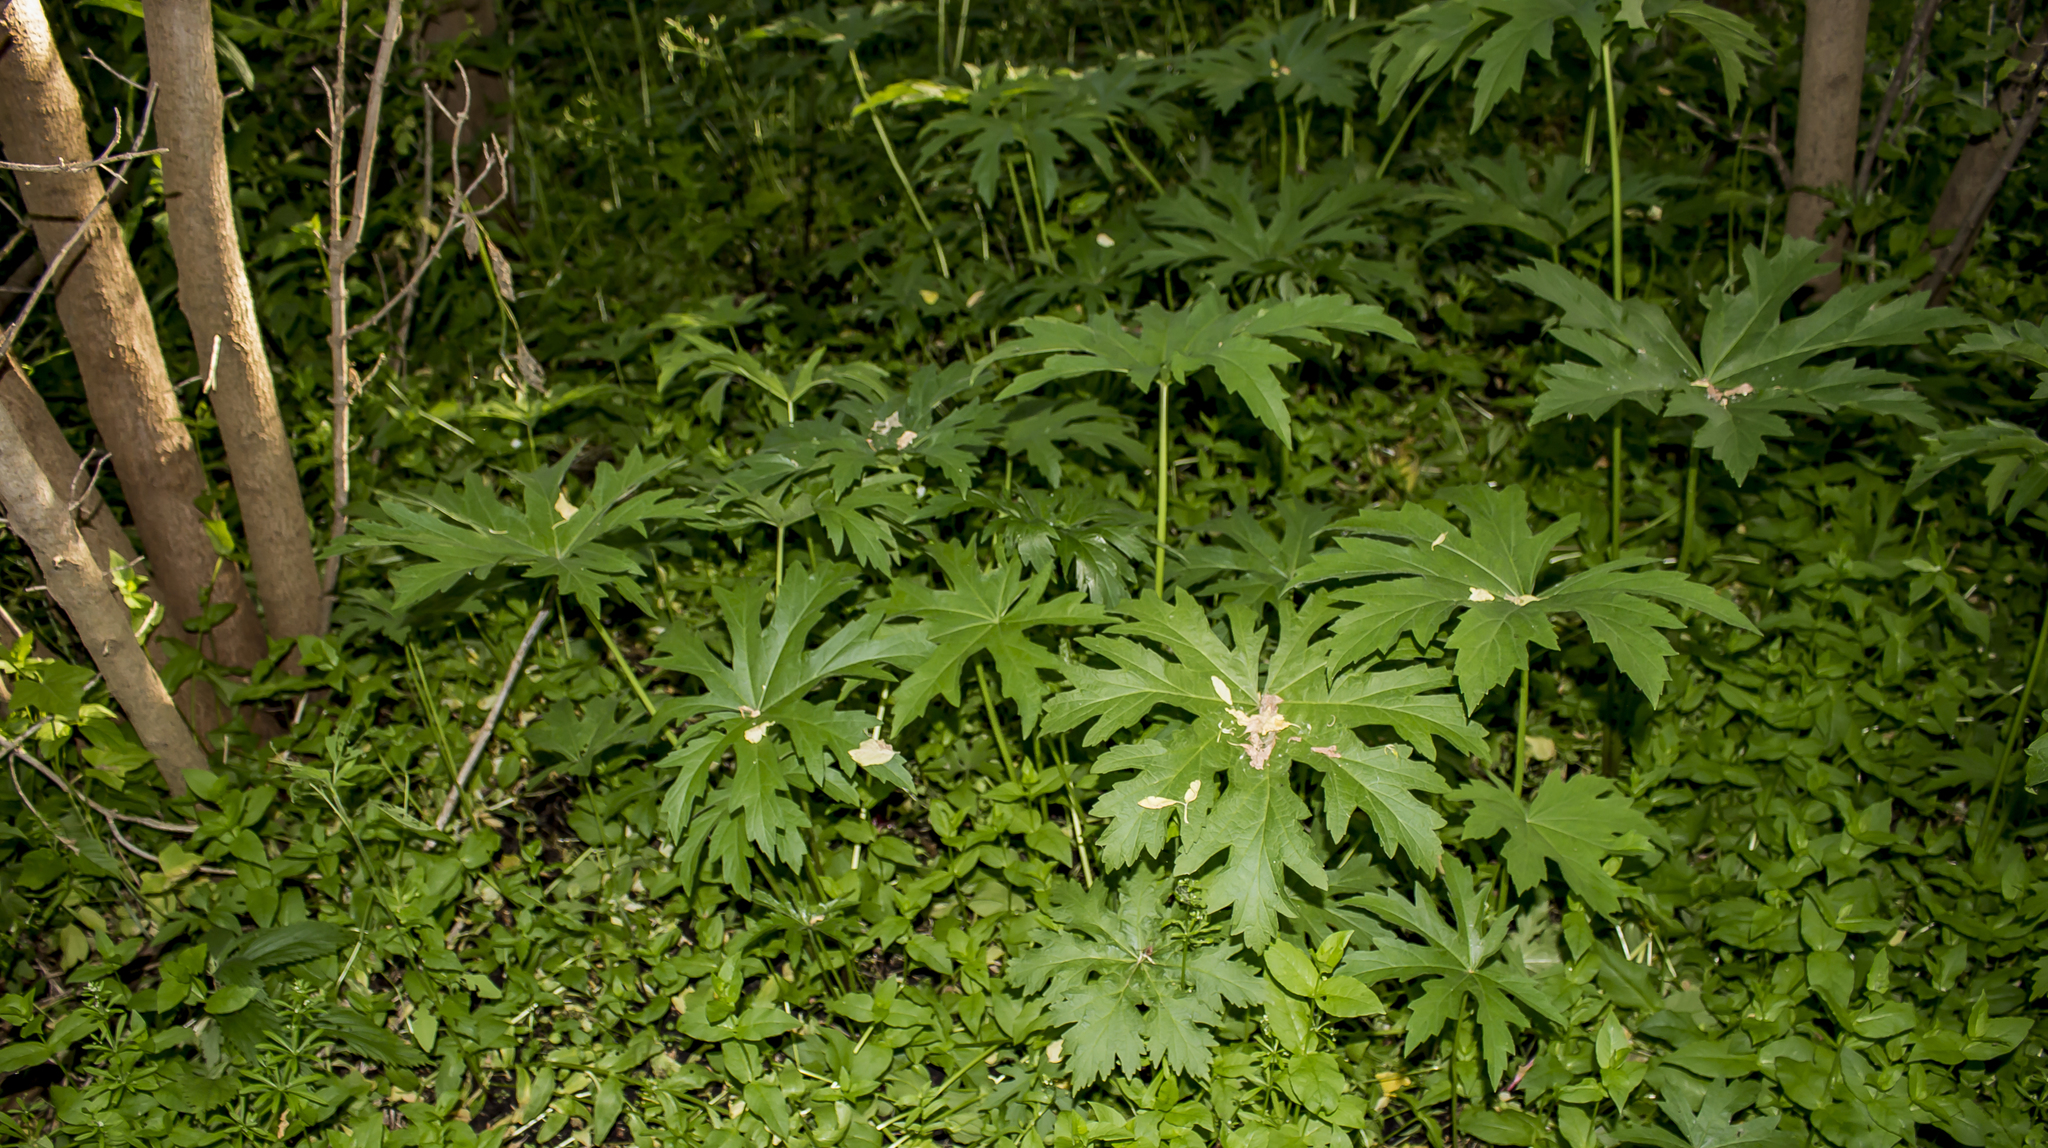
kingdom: Plantae
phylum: Tracheophyta
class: Magnoliopsida
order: Malvales
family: Malvaceae
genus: Napaea
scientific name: Napaea dioica
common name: Glade-mallow
